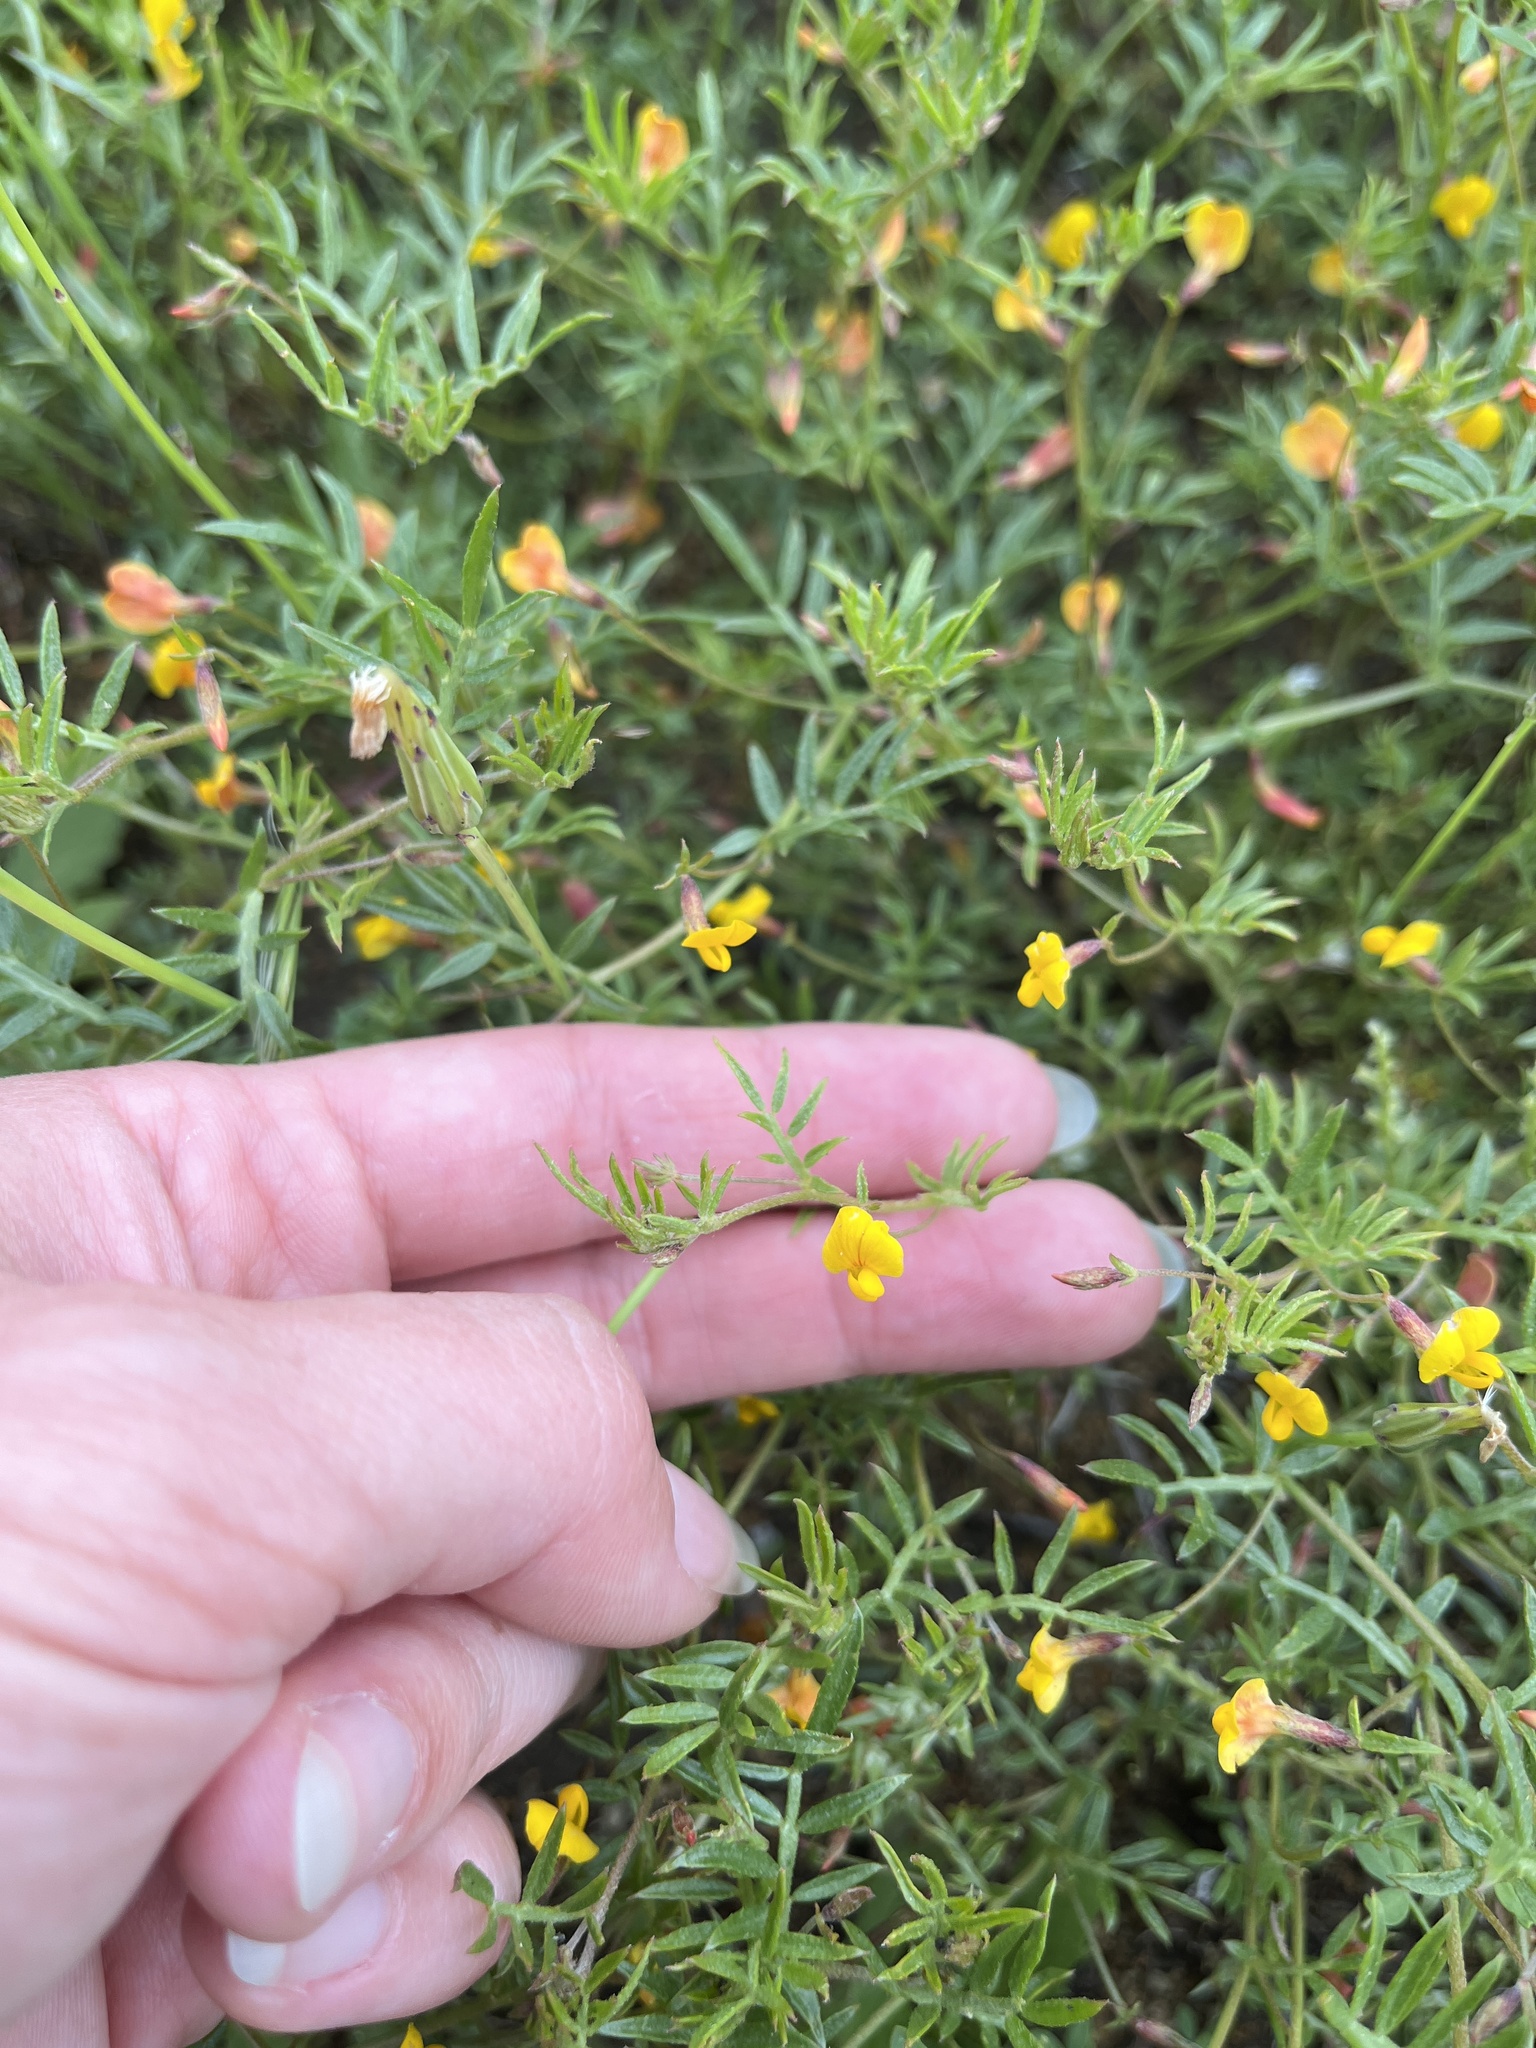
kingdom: Plantae
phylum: Tracheophyta
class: Magnoliopsida
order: Fabales
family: Fabaceae
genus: Acmispon
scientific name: Acmispon strigosus
